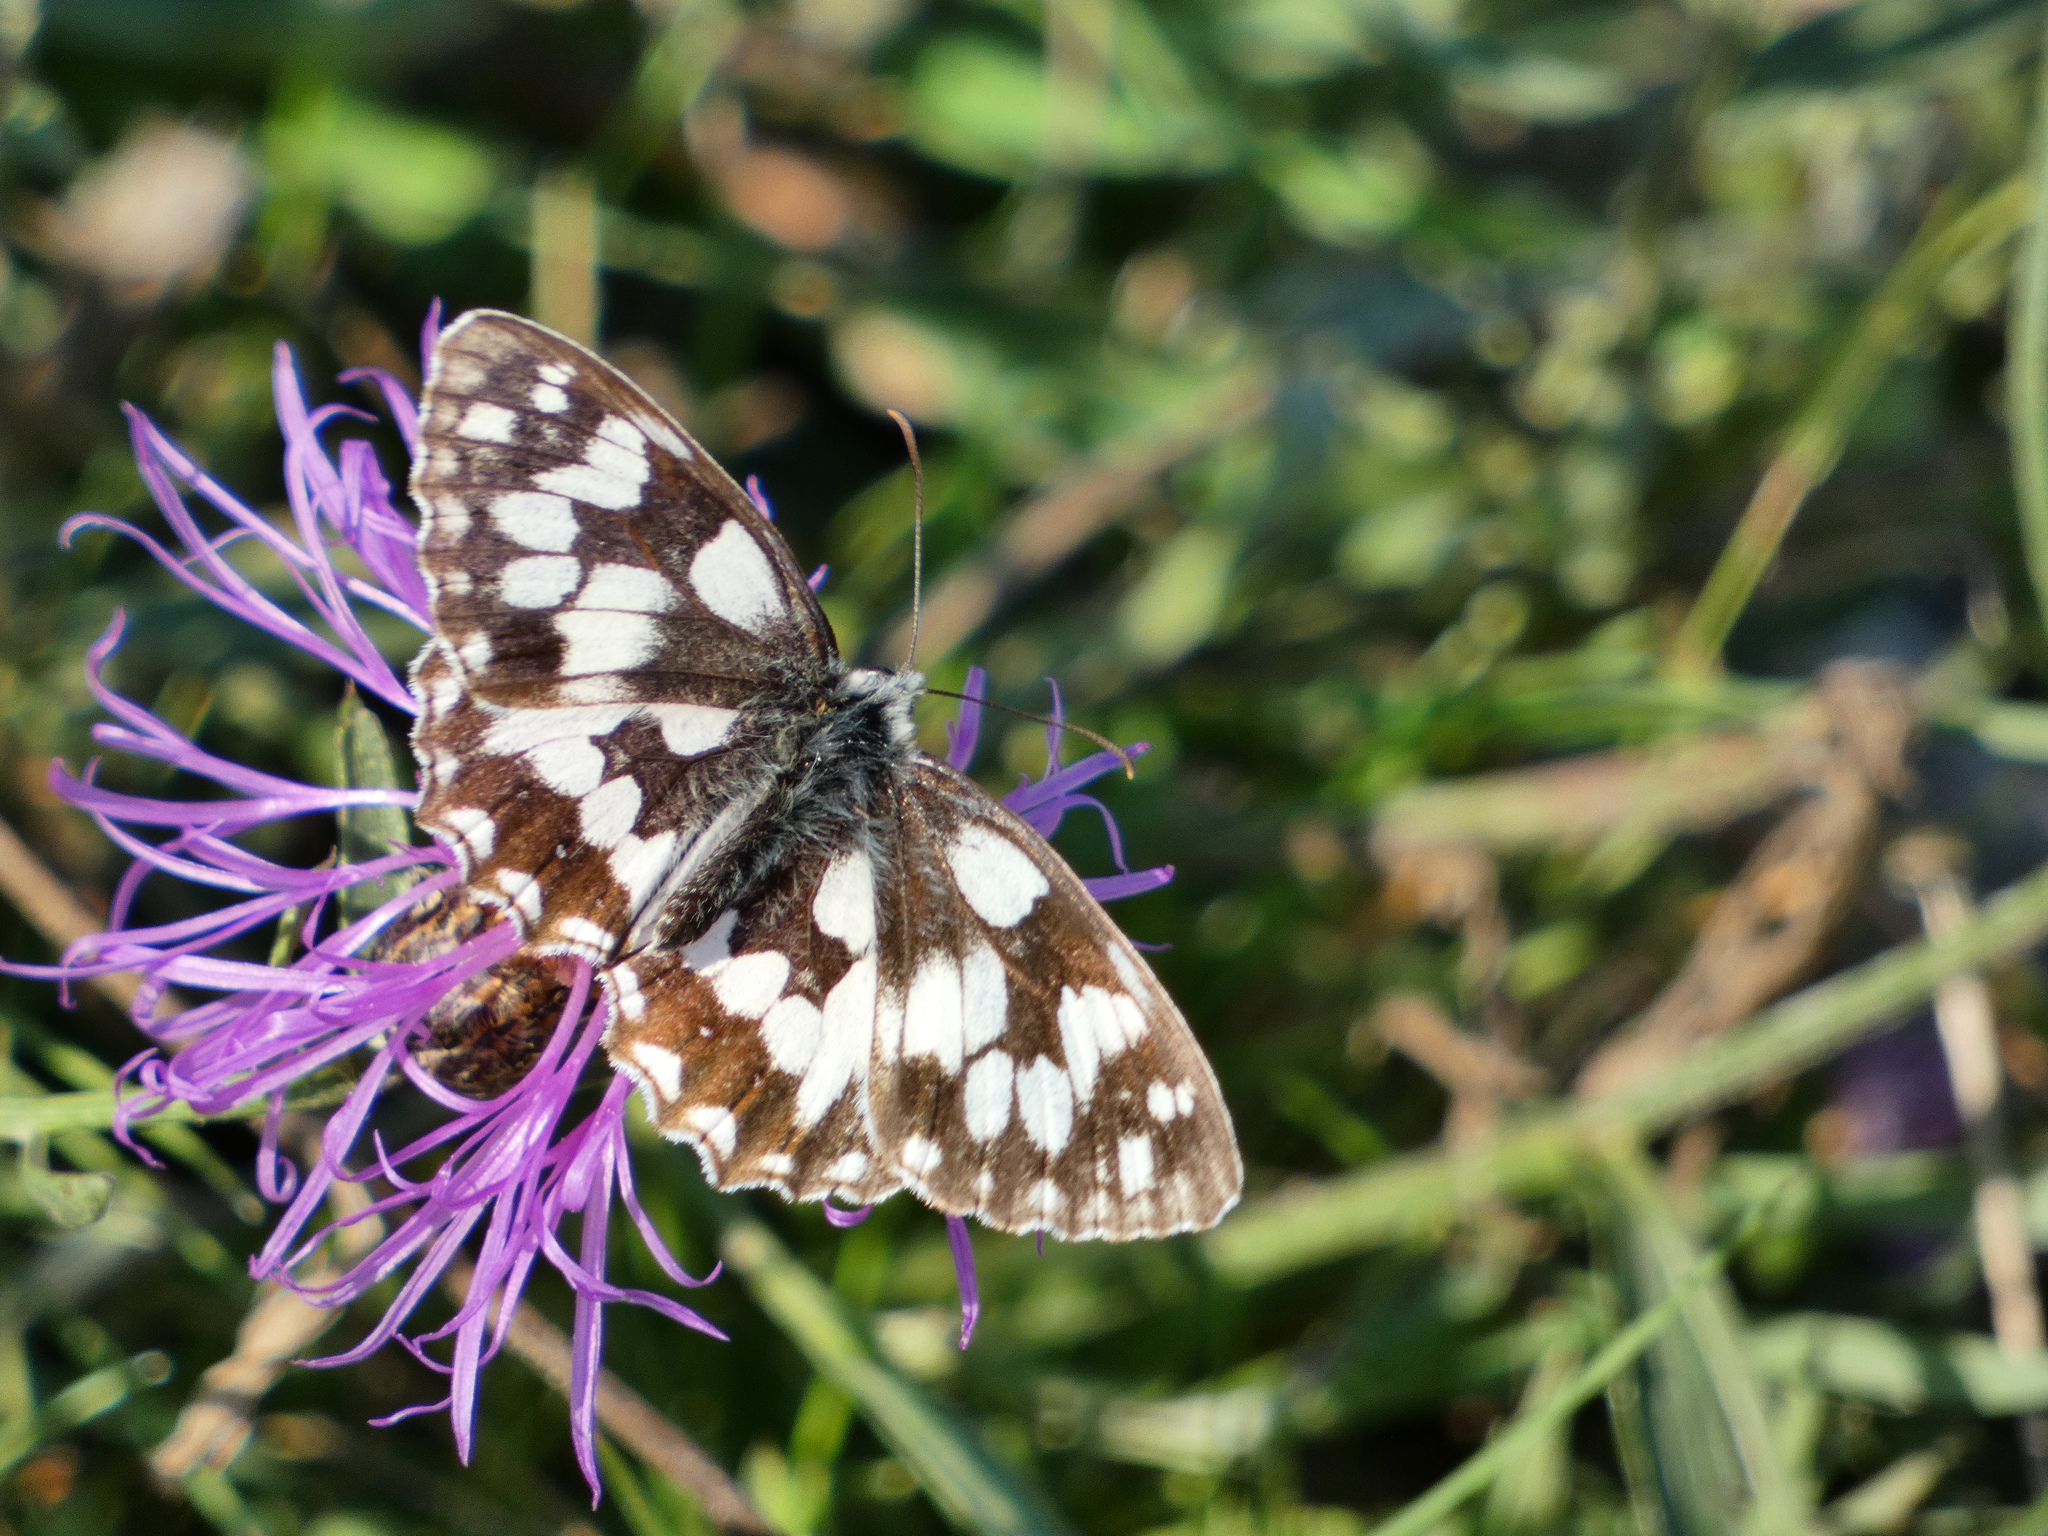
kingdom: Animalia
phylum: Arthropoda
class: Insecta
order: Lepidoptera
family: Nymphalidae
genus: Melanargia
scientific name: Melanargia galathea
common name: Marbled white
